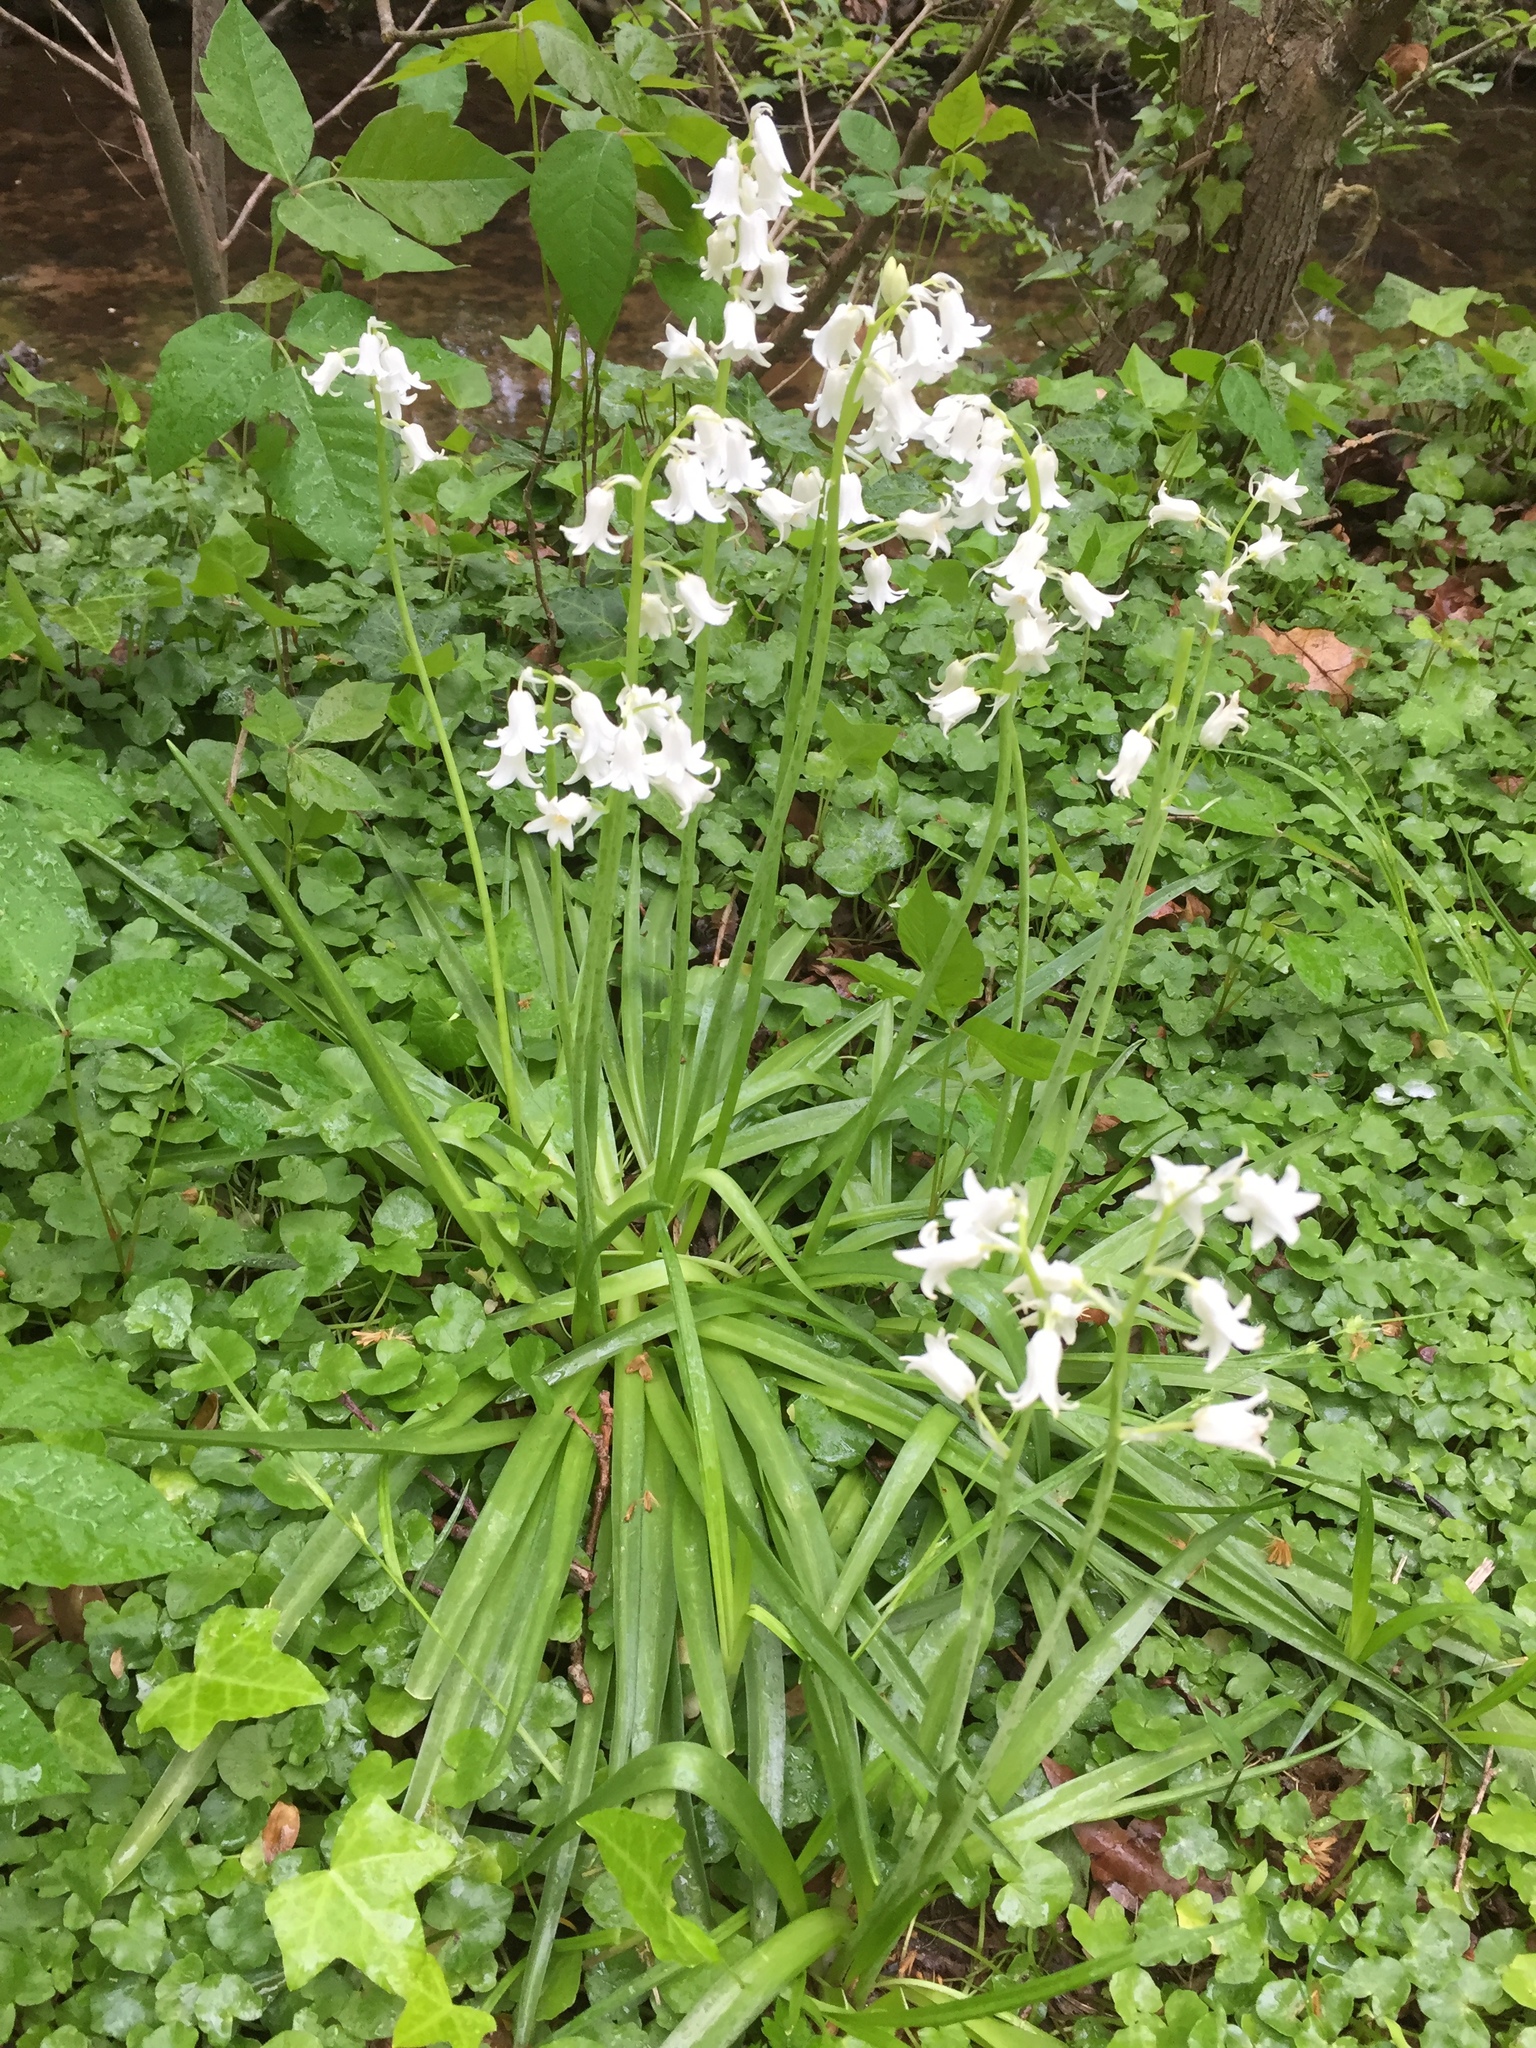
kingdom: Plantae
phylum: Tracheophyta
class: Liliopsida
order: Asparagales
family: Asparagaceae
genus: Hyacinthoides
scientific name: Hyacinthoides hispanica
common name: Spanish bluebell
